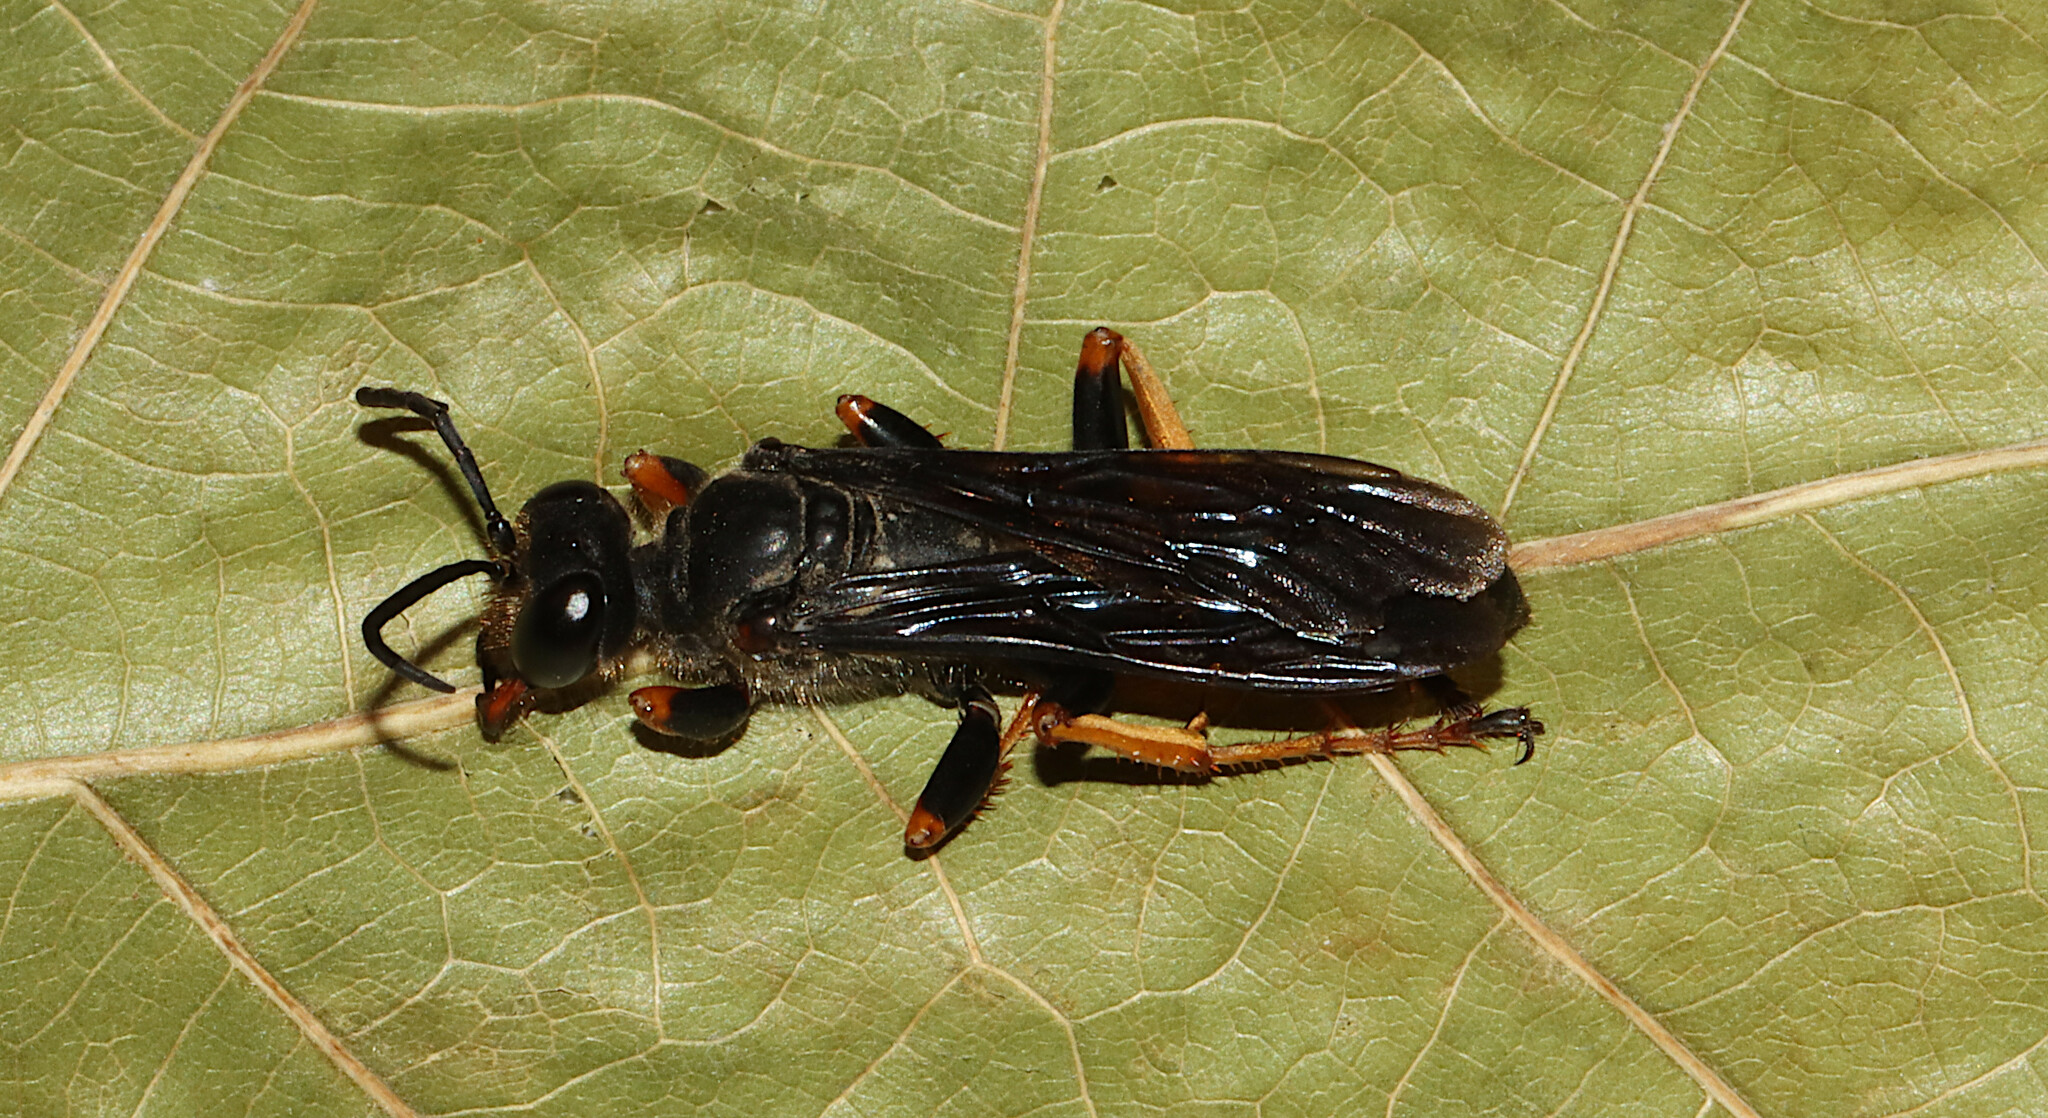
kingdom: Animalia
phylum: Arthropoda
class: Insecta
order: Hymenoptera
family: Sphecidae
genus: Sphex
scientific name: Sphex nudus
